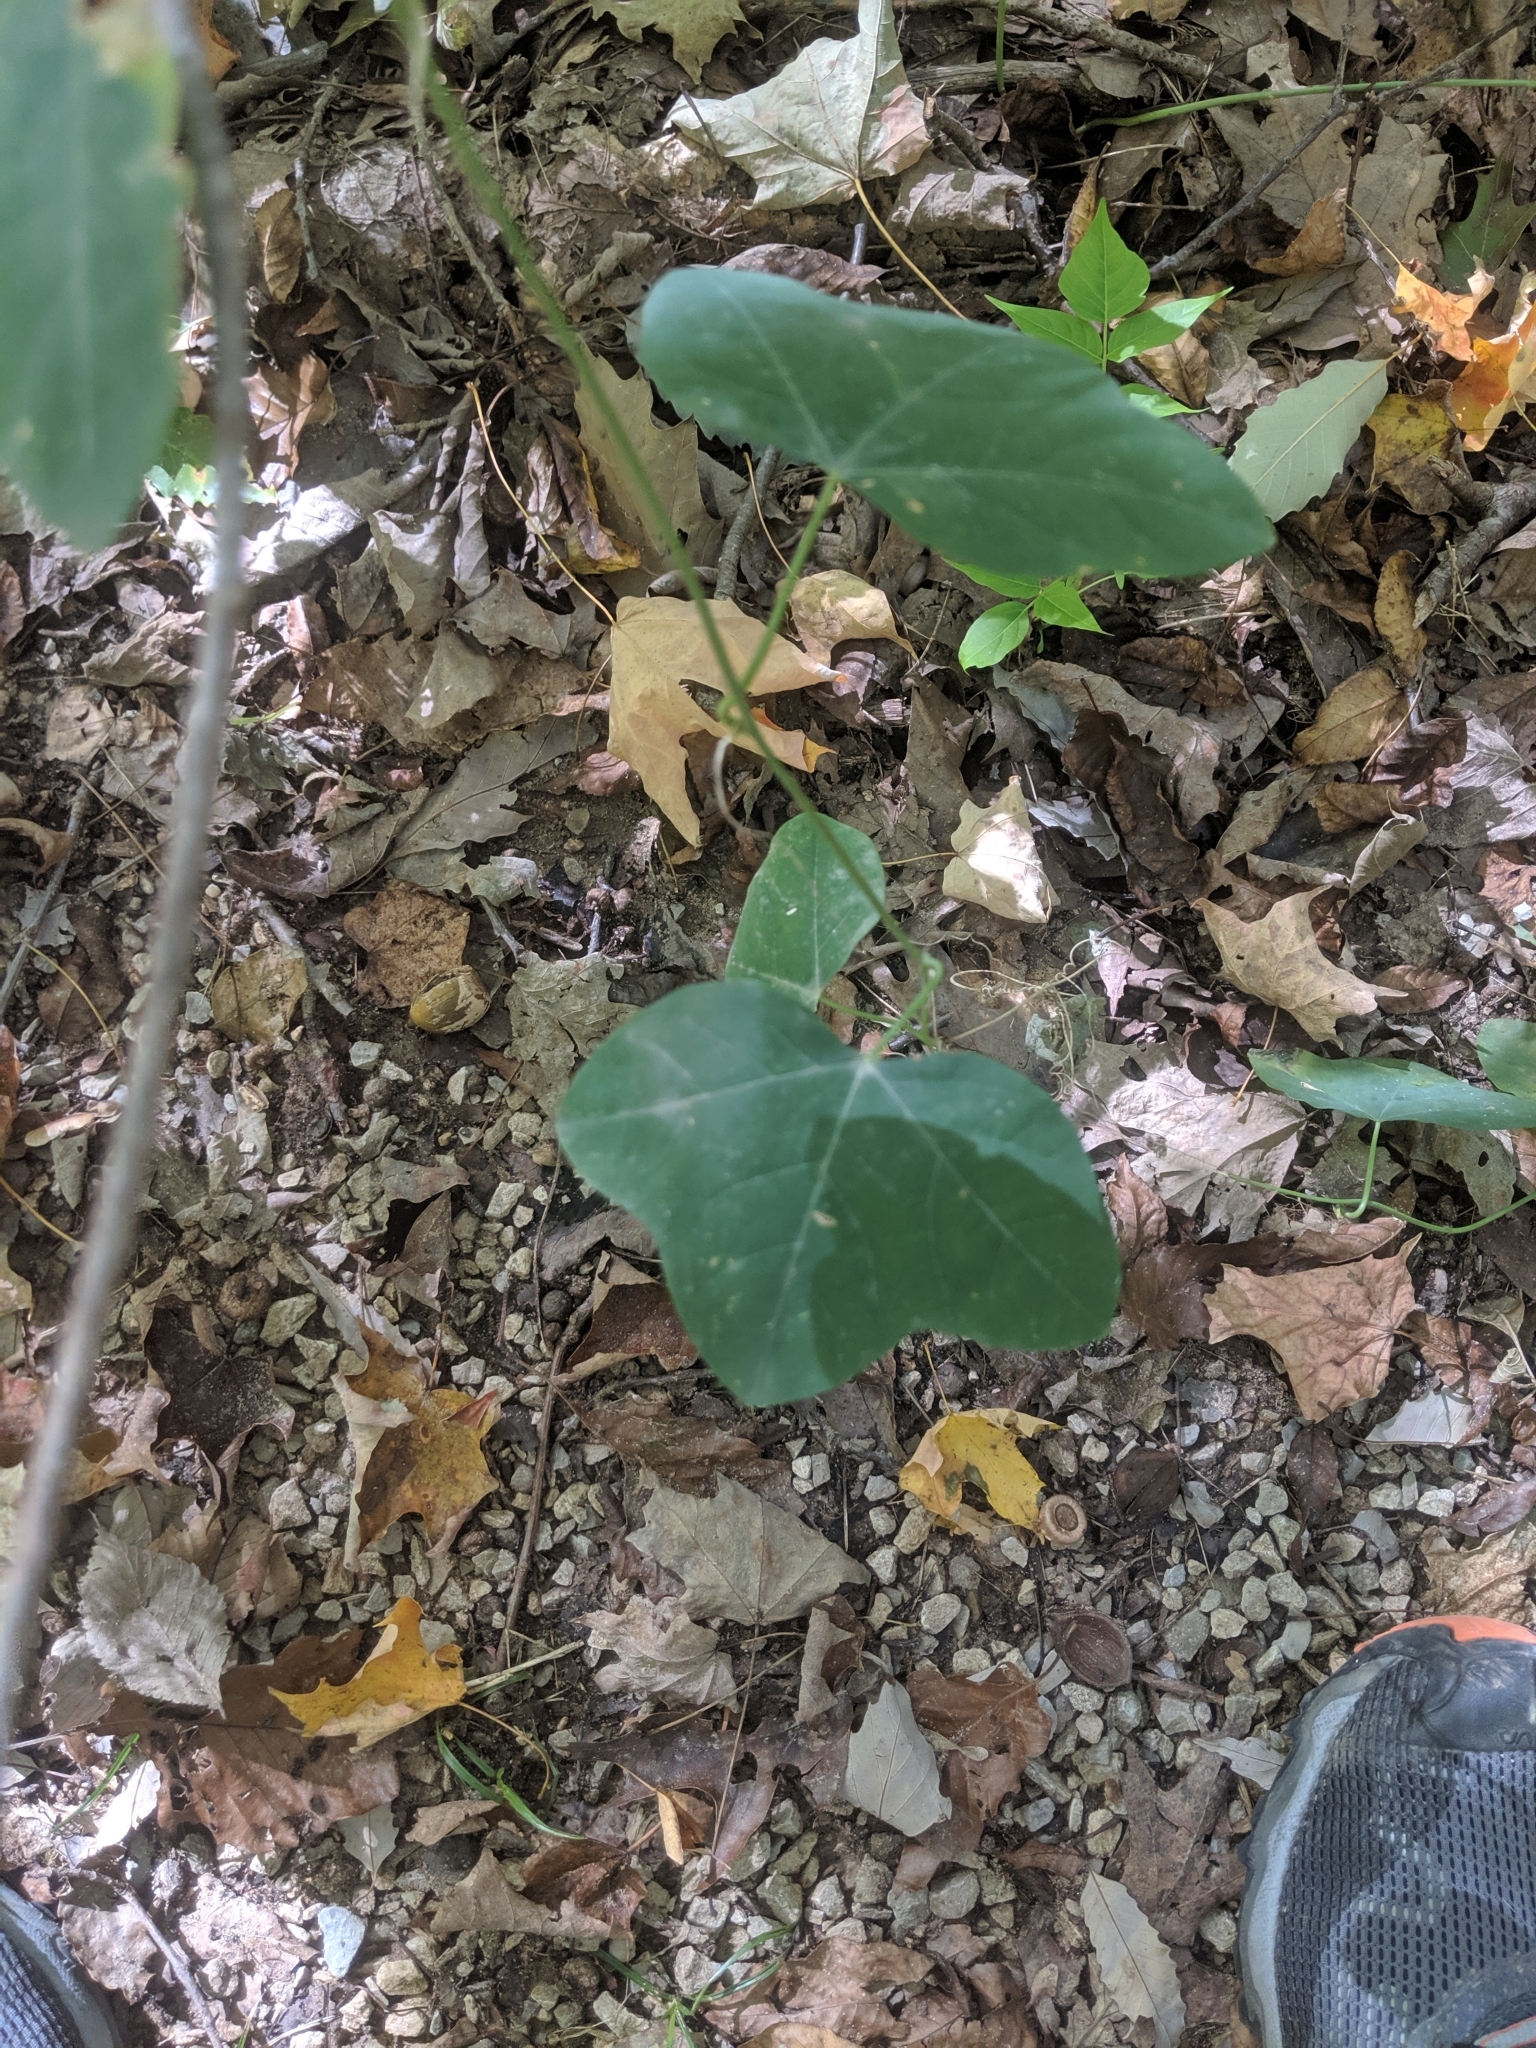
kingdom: Plantae
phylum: Tracheophyta
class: Magnoliopsida
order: Malpighiales
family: Passifloraceae
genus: Passiflora
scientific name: Passiflora lutea
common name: Yellow passionflower
